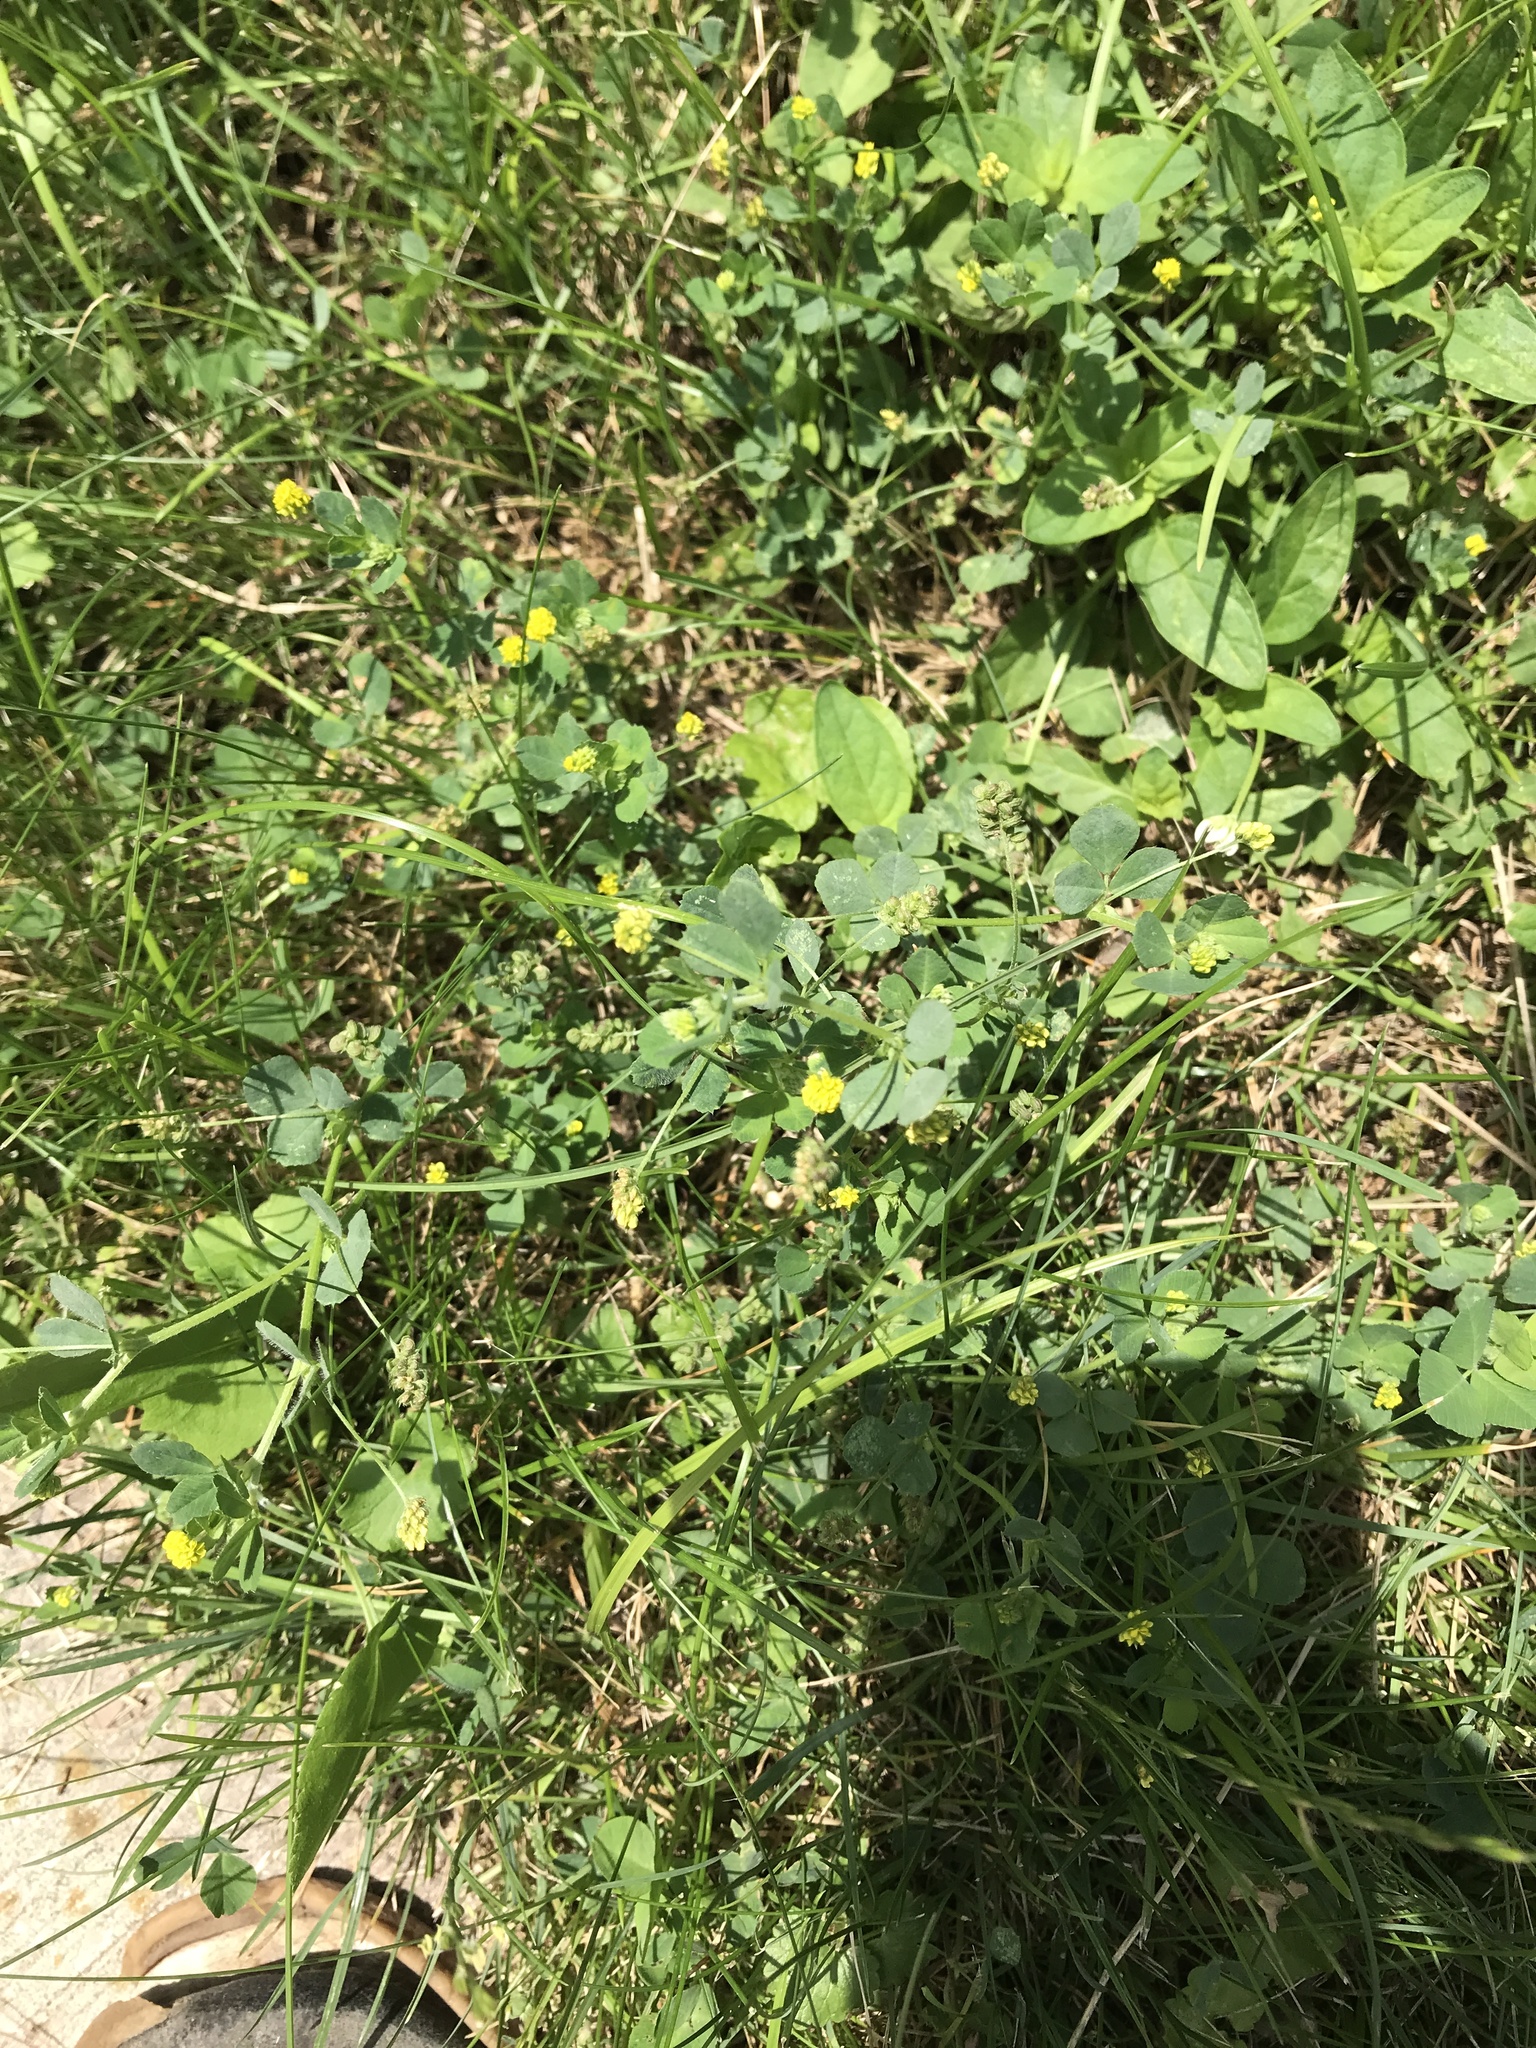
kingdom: Plantae
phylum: Tracheophyta
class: Magnoliopsida
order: Fabales
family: Fabaceae
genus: Medicago
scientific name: Medicago lupulina
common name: Black medick
